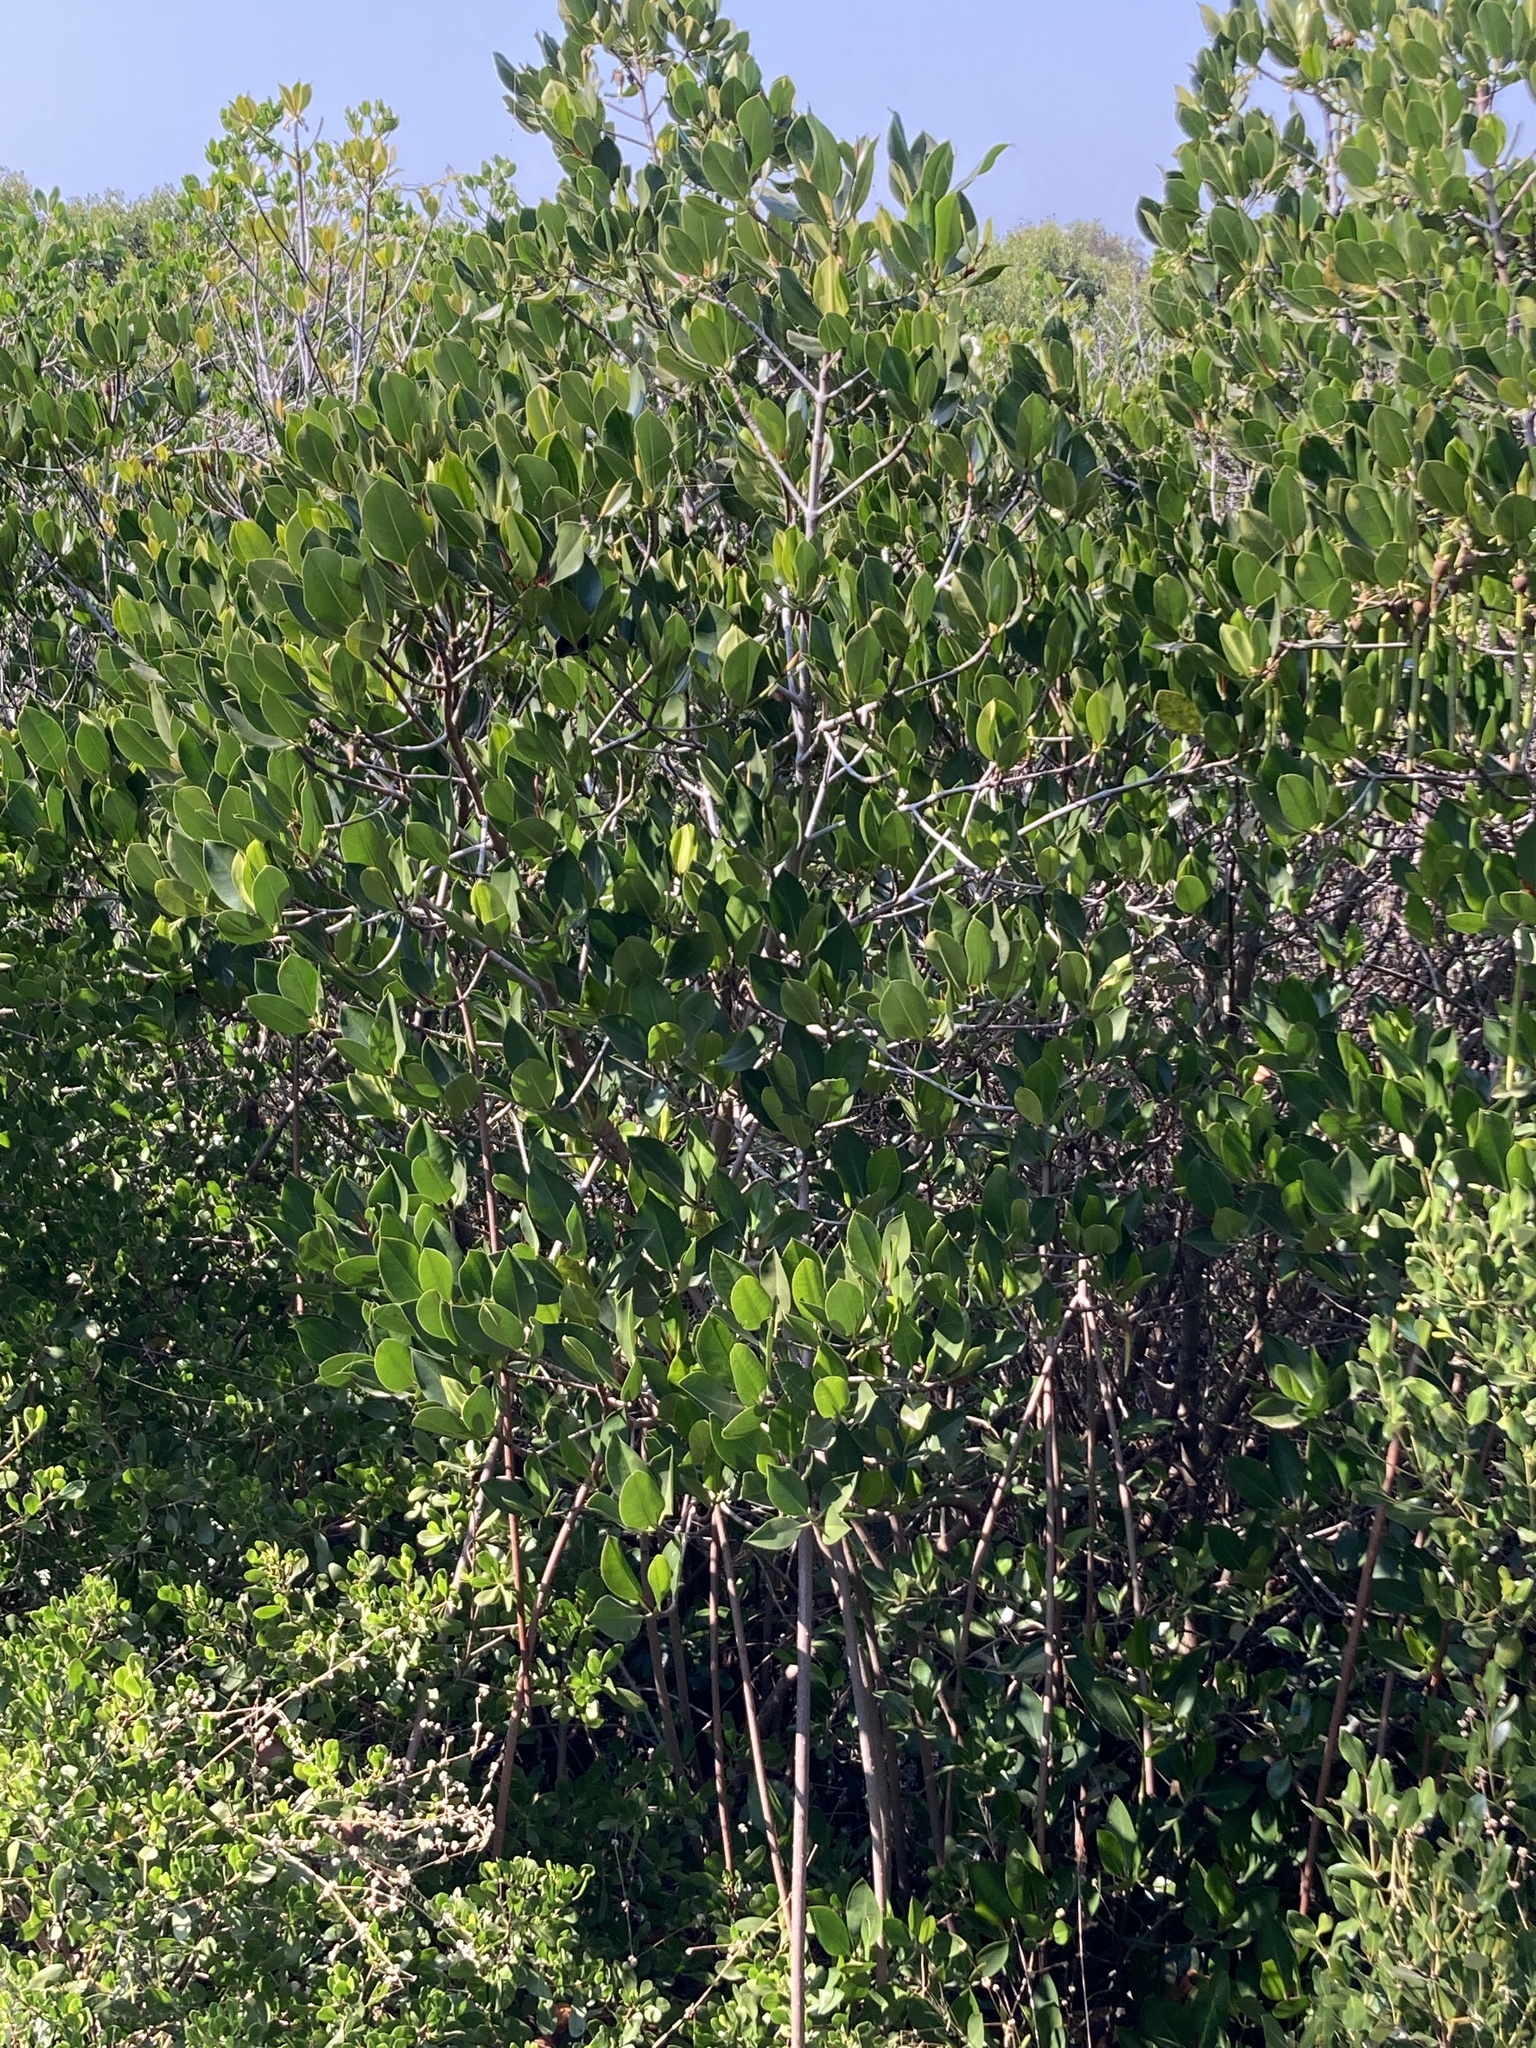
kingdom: Plantae
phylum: Tracheophyta
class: Magnoliopsida
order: Malpighiales
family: Rhizophoraceae
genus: Rhizophora
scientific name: Rhizophora stylosa
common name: Red mangrove
